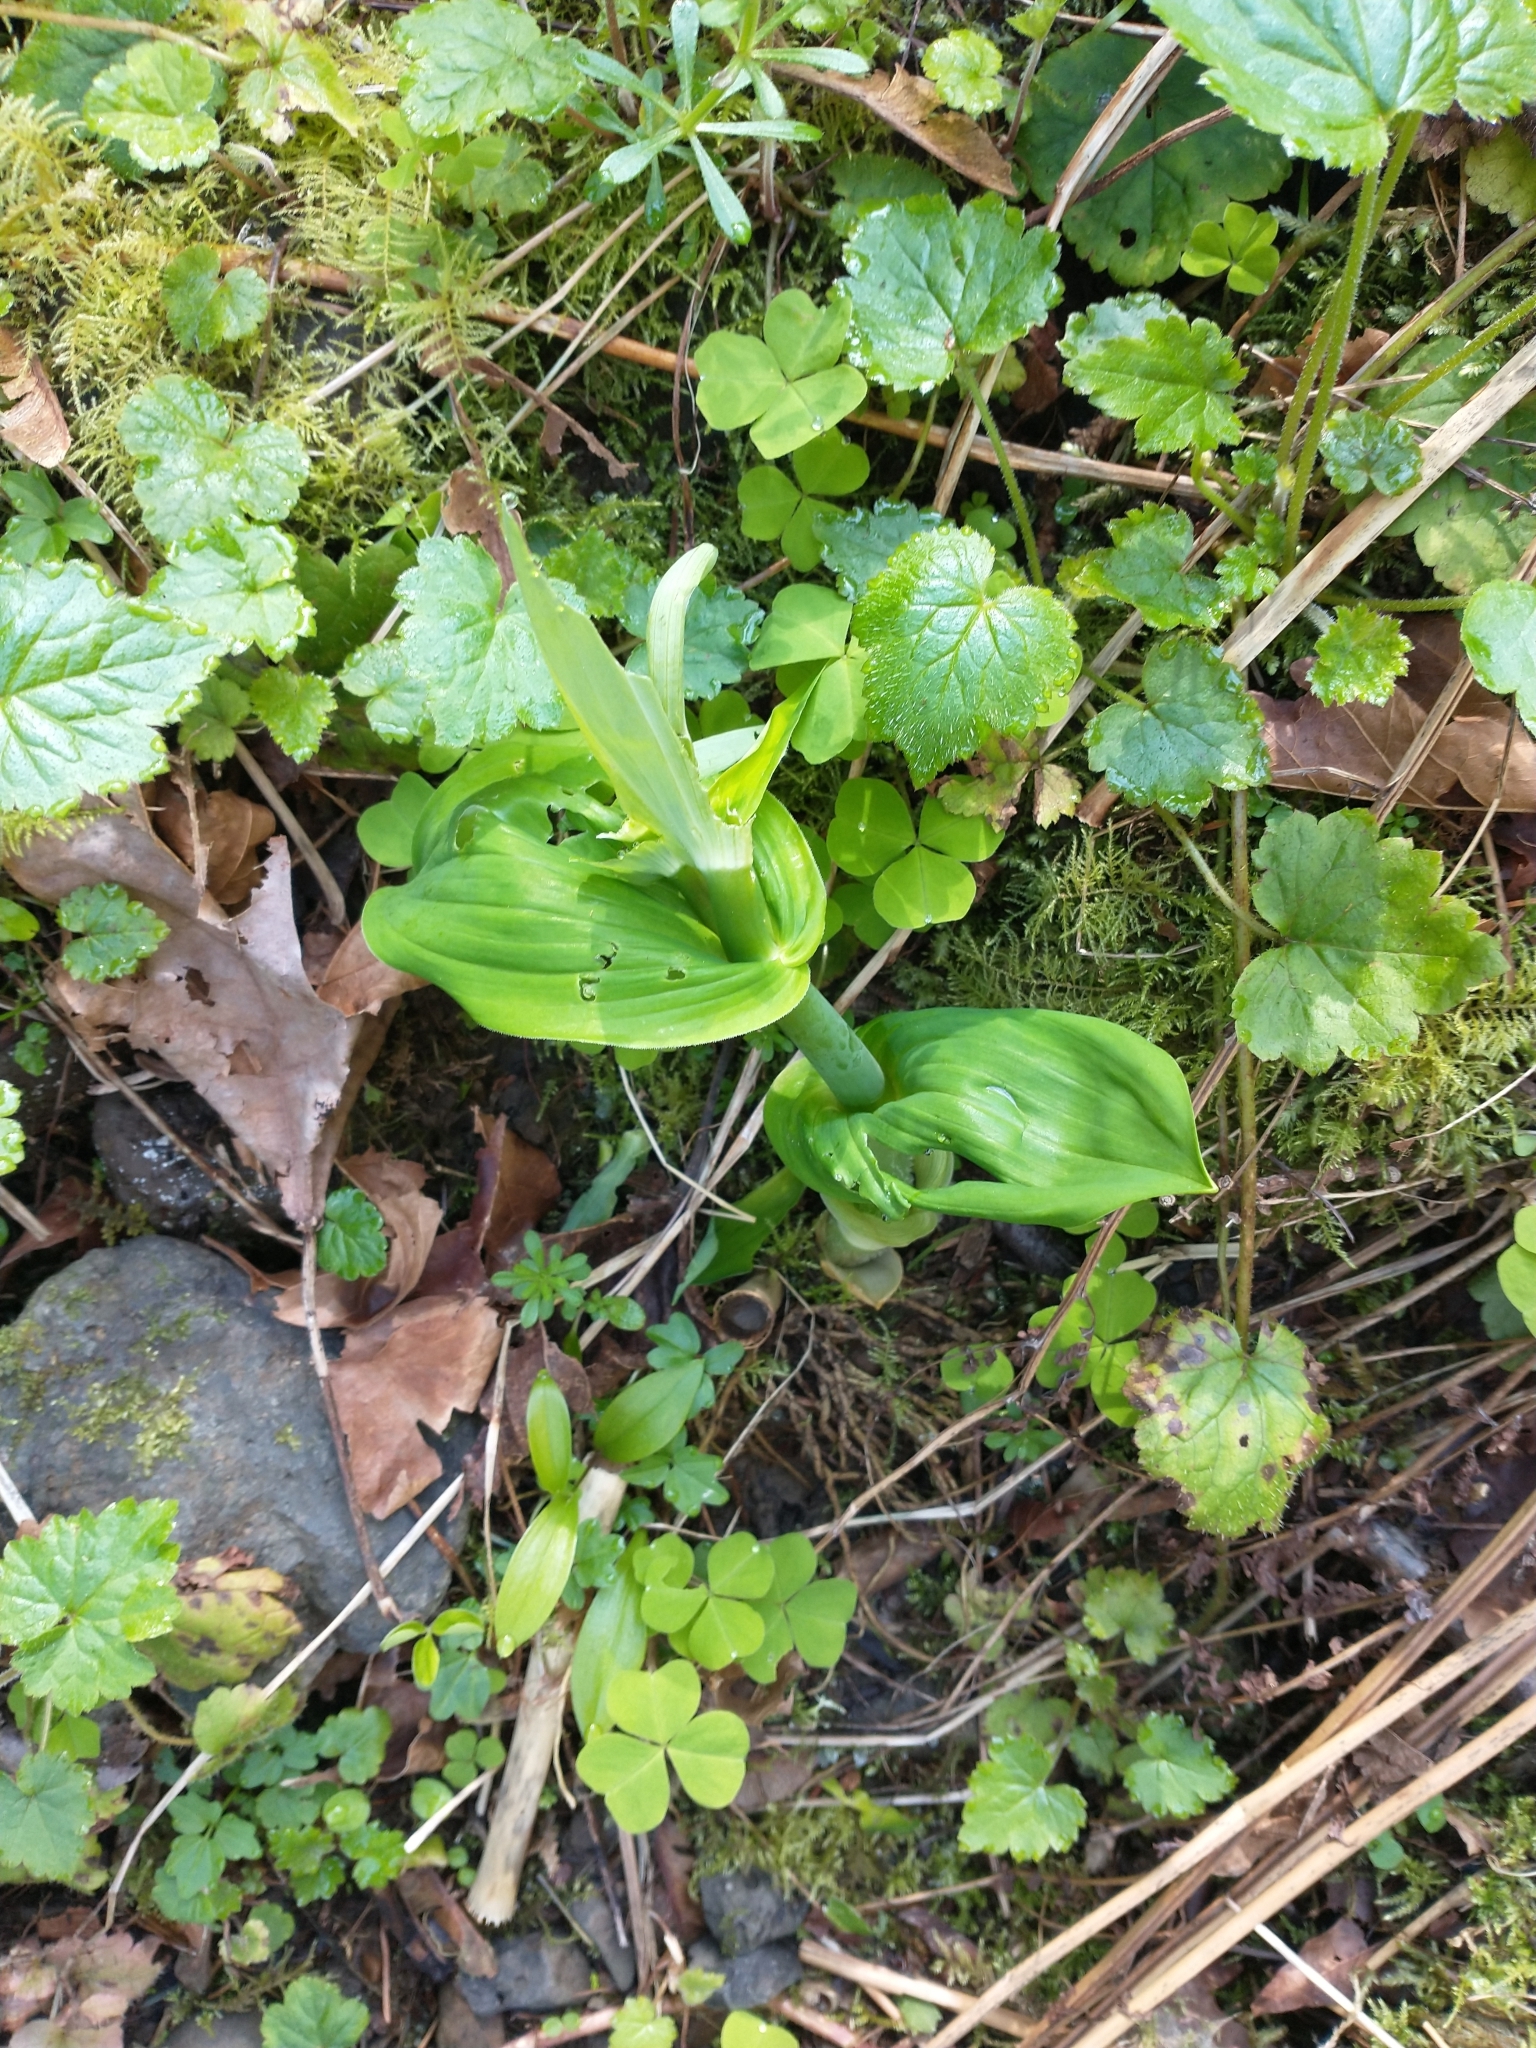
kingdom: Plantae
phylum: Tracheophyta
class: Liliopsida
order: Liliales
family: Liliaceae
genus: Streptopus
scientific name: Streptopus amplexifolius
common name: Clasp twisted stalk
